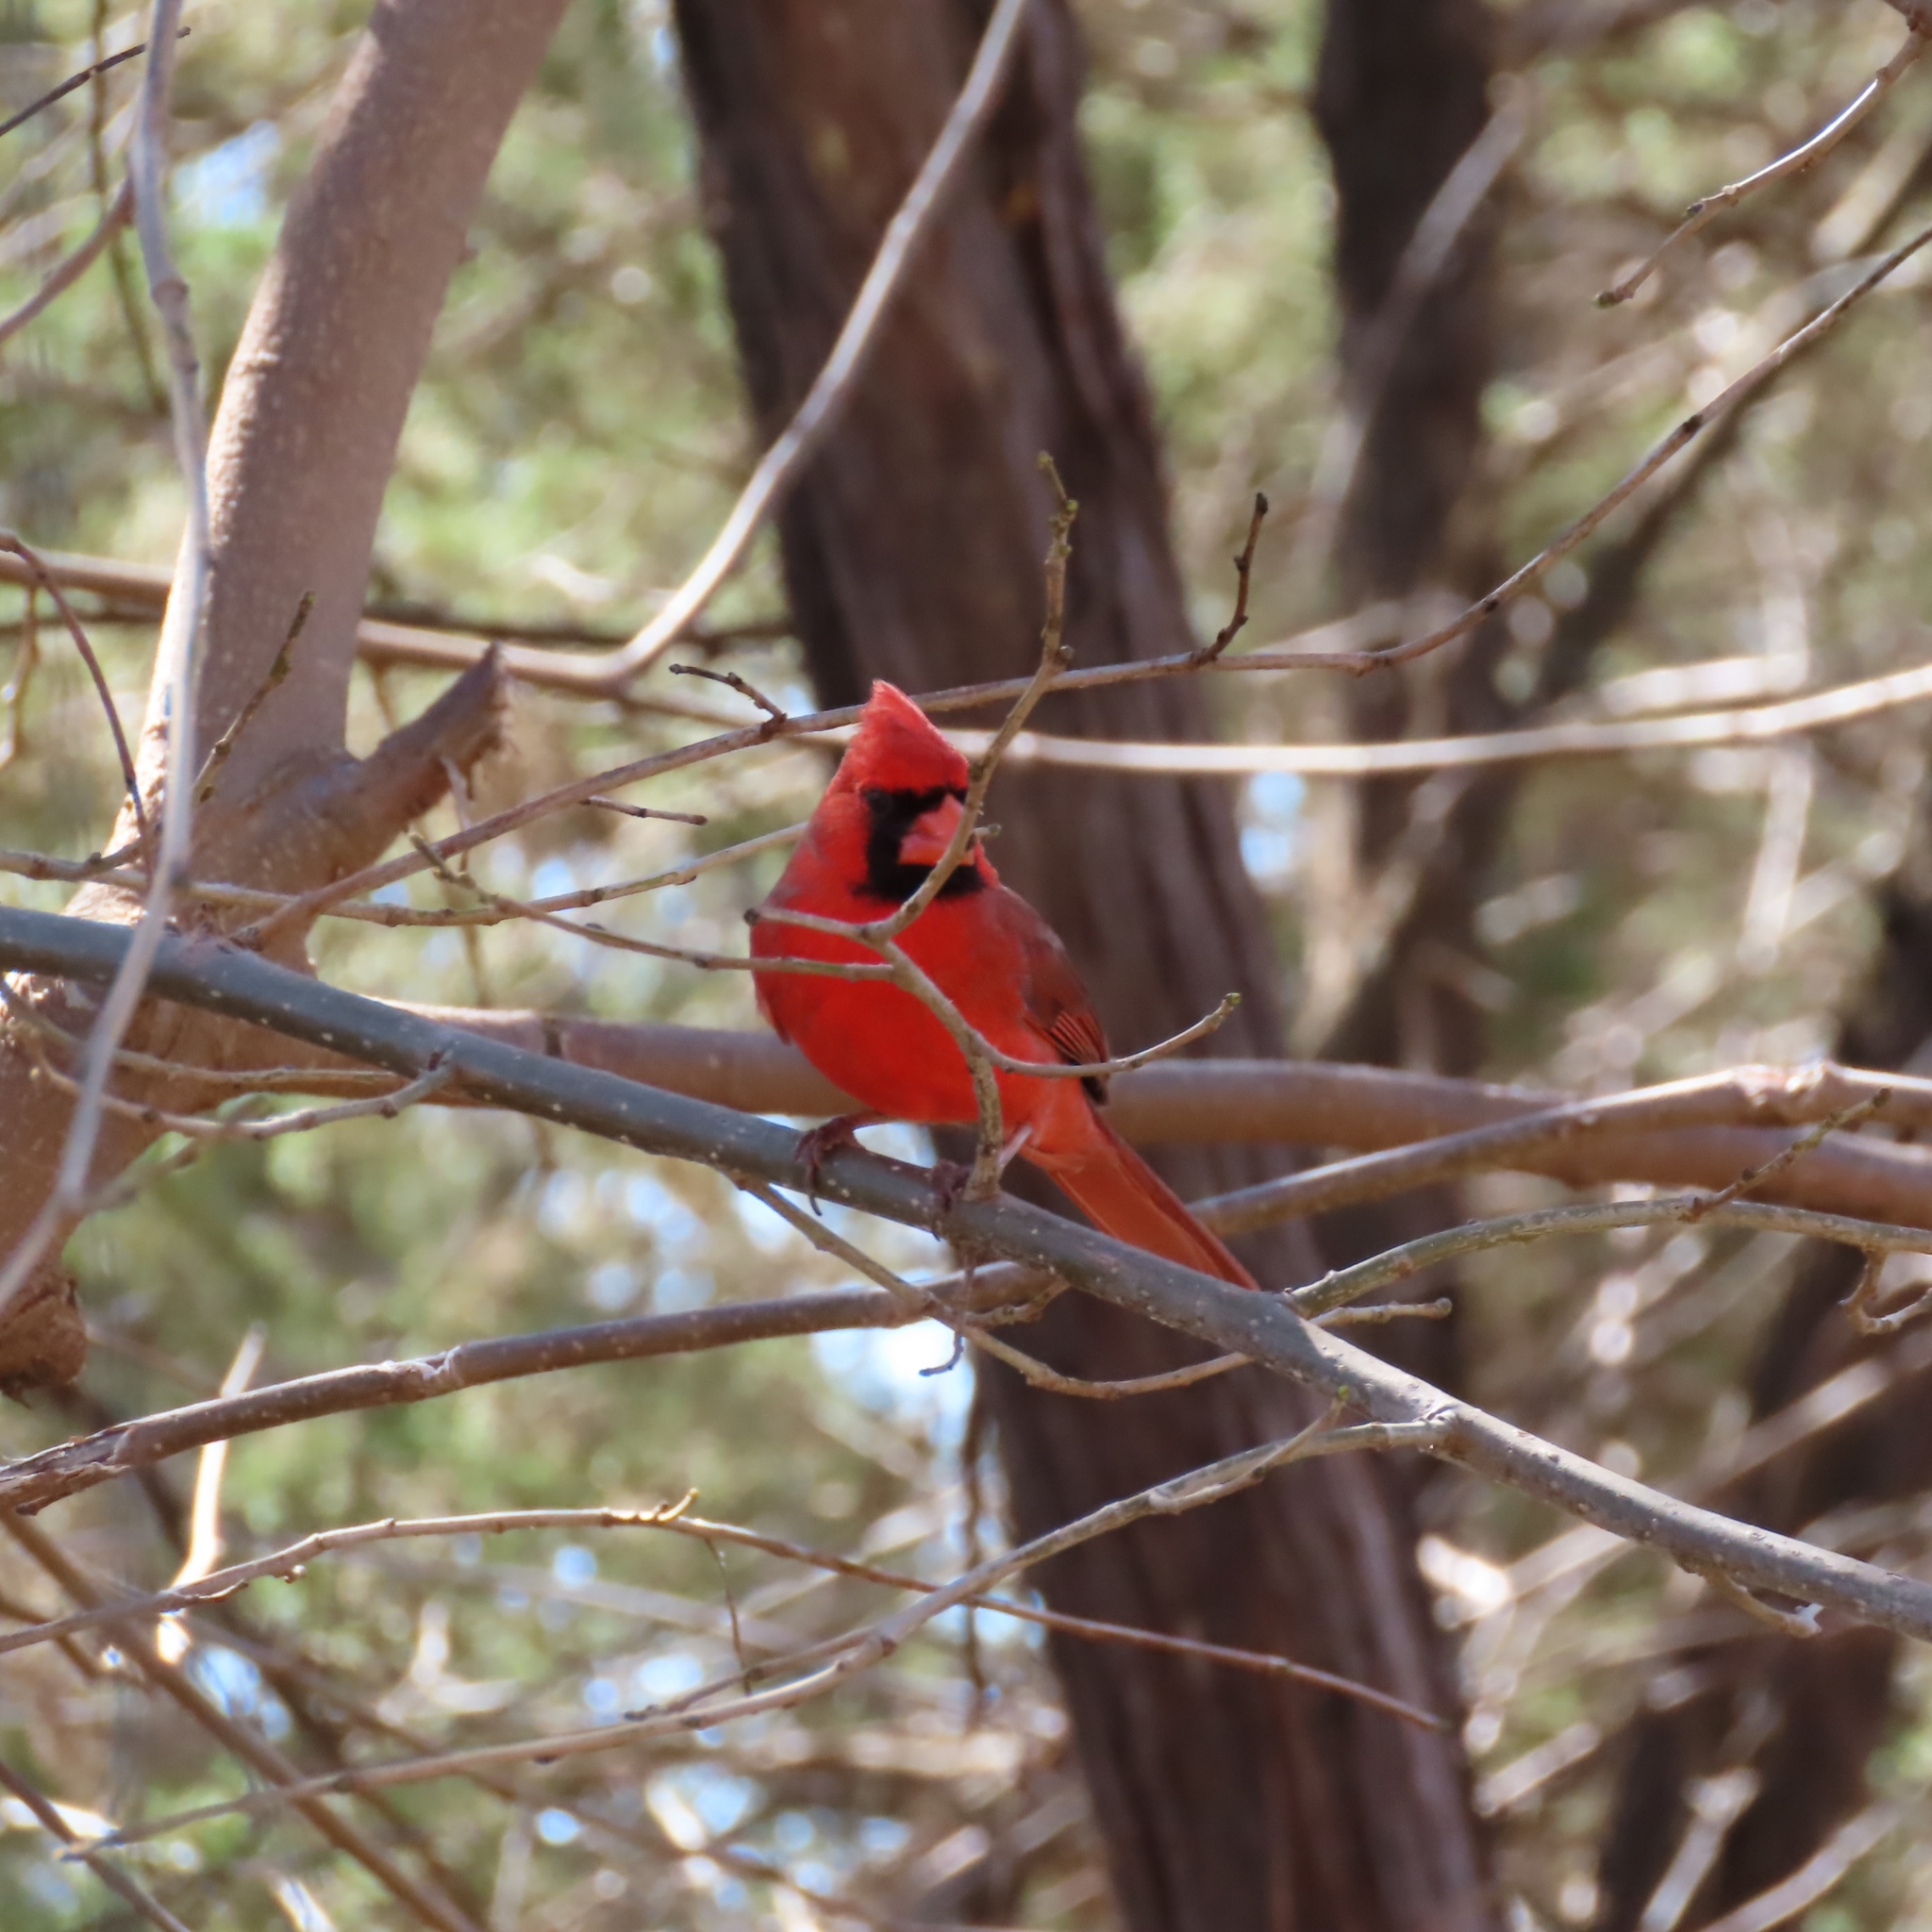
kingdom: Animalia
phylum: Chordata
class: Aves
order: Passeriformes
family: Cardinalidae
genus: Cardinalis
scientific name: Cardinalis cardinalis
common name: Northern cardinal
